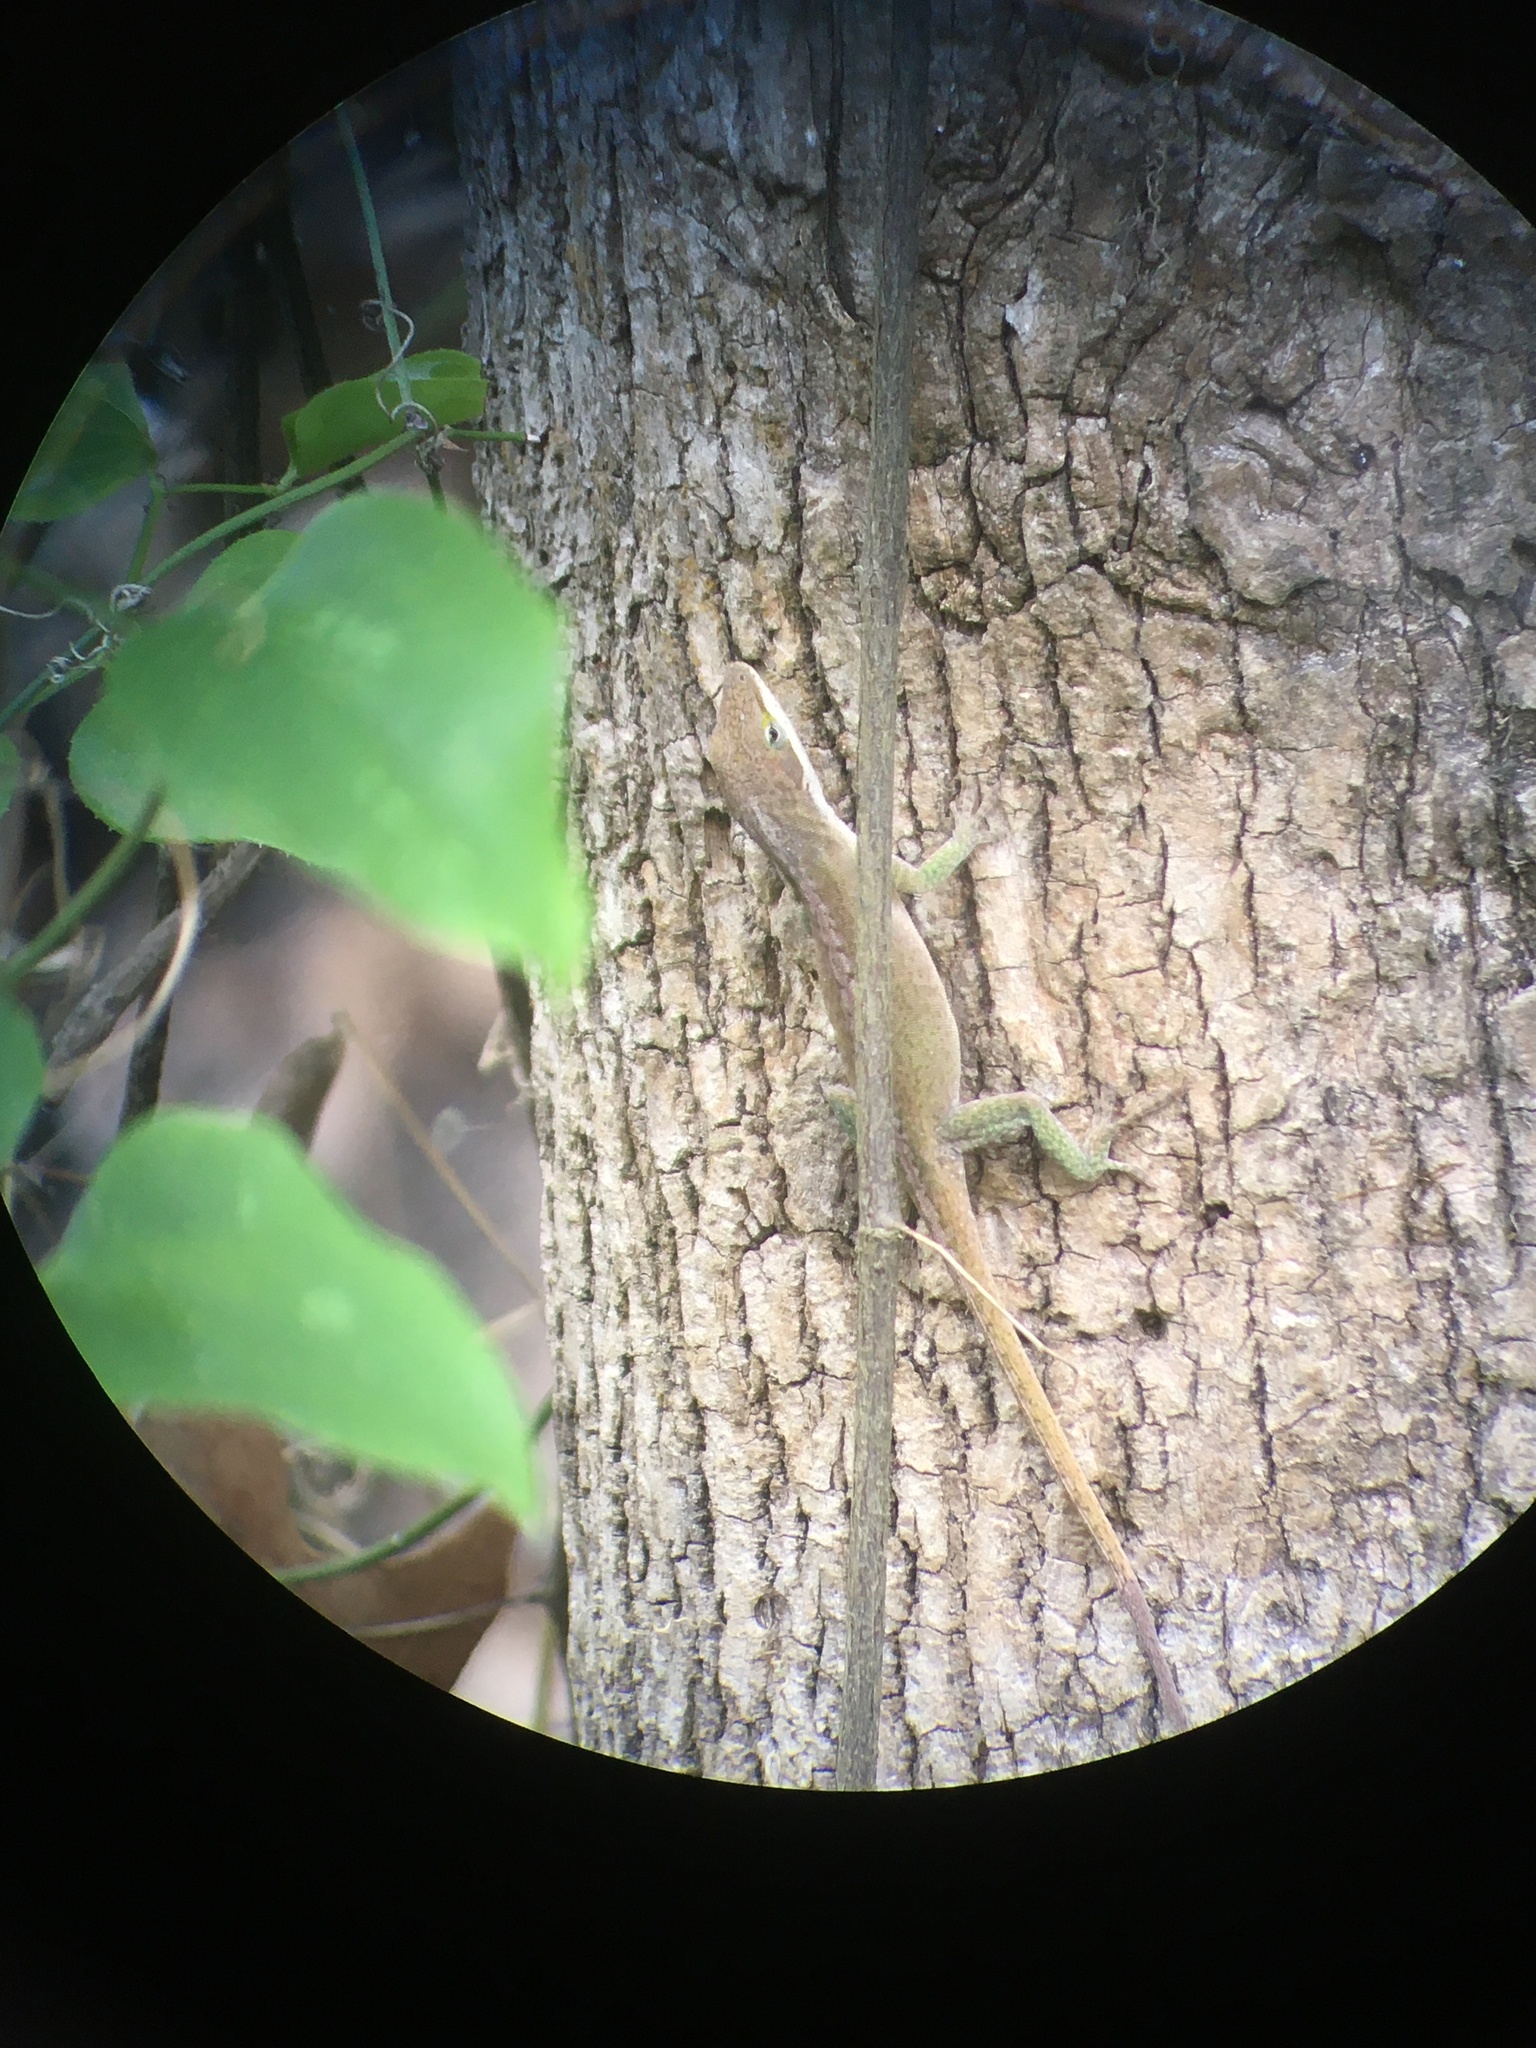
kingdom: Animalia
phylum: Chordata
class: Squamata
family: Dactyloidae
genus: Anolis
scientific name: Anolis carolinensis
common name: Green anole
